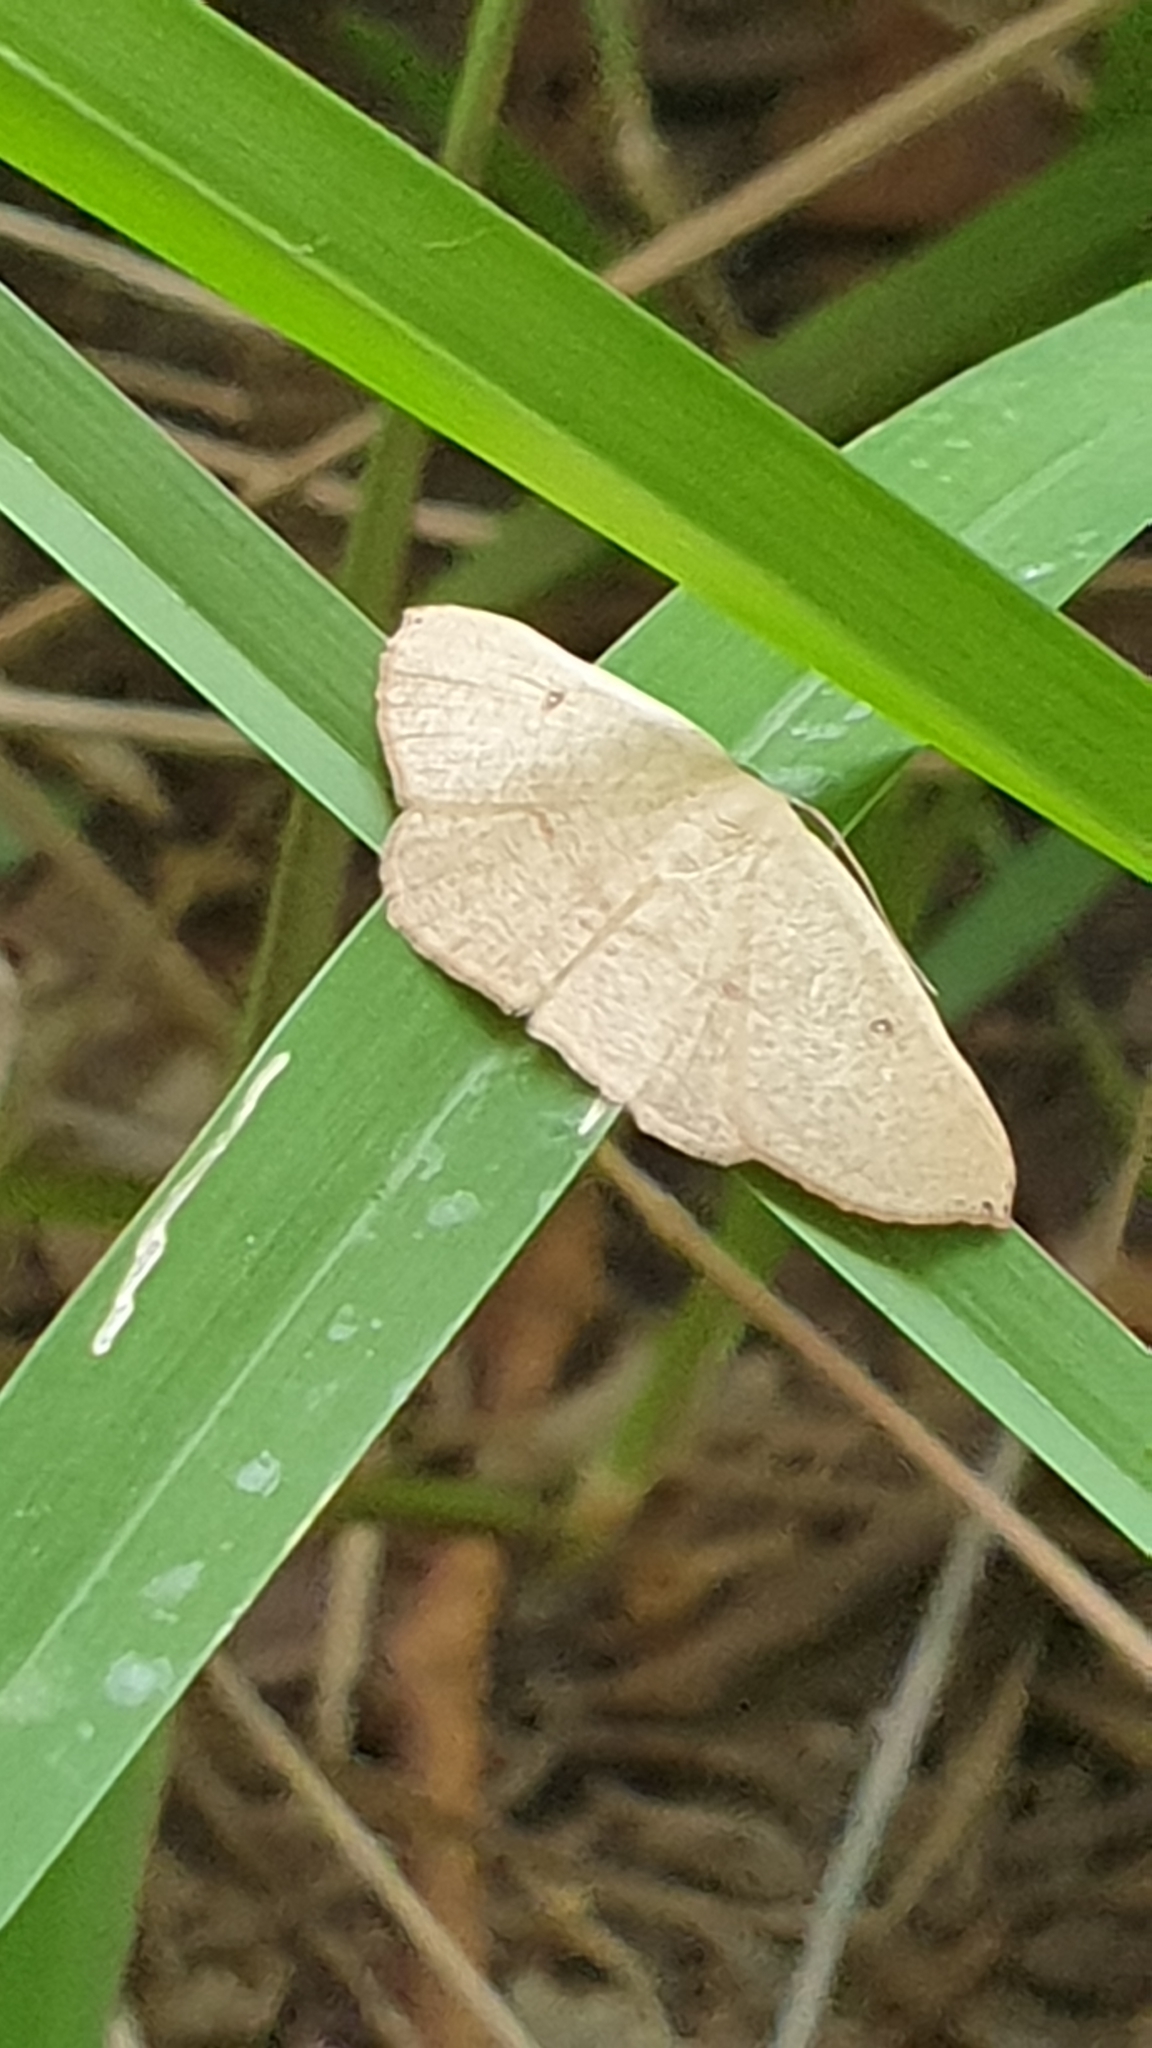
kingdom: Animalia
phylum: Arthropoda
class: Insecta
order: Lepidoptera
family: Geometridae
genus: Cyclophora
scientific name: Cyclophora puppillaria
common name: Blair's mocha
